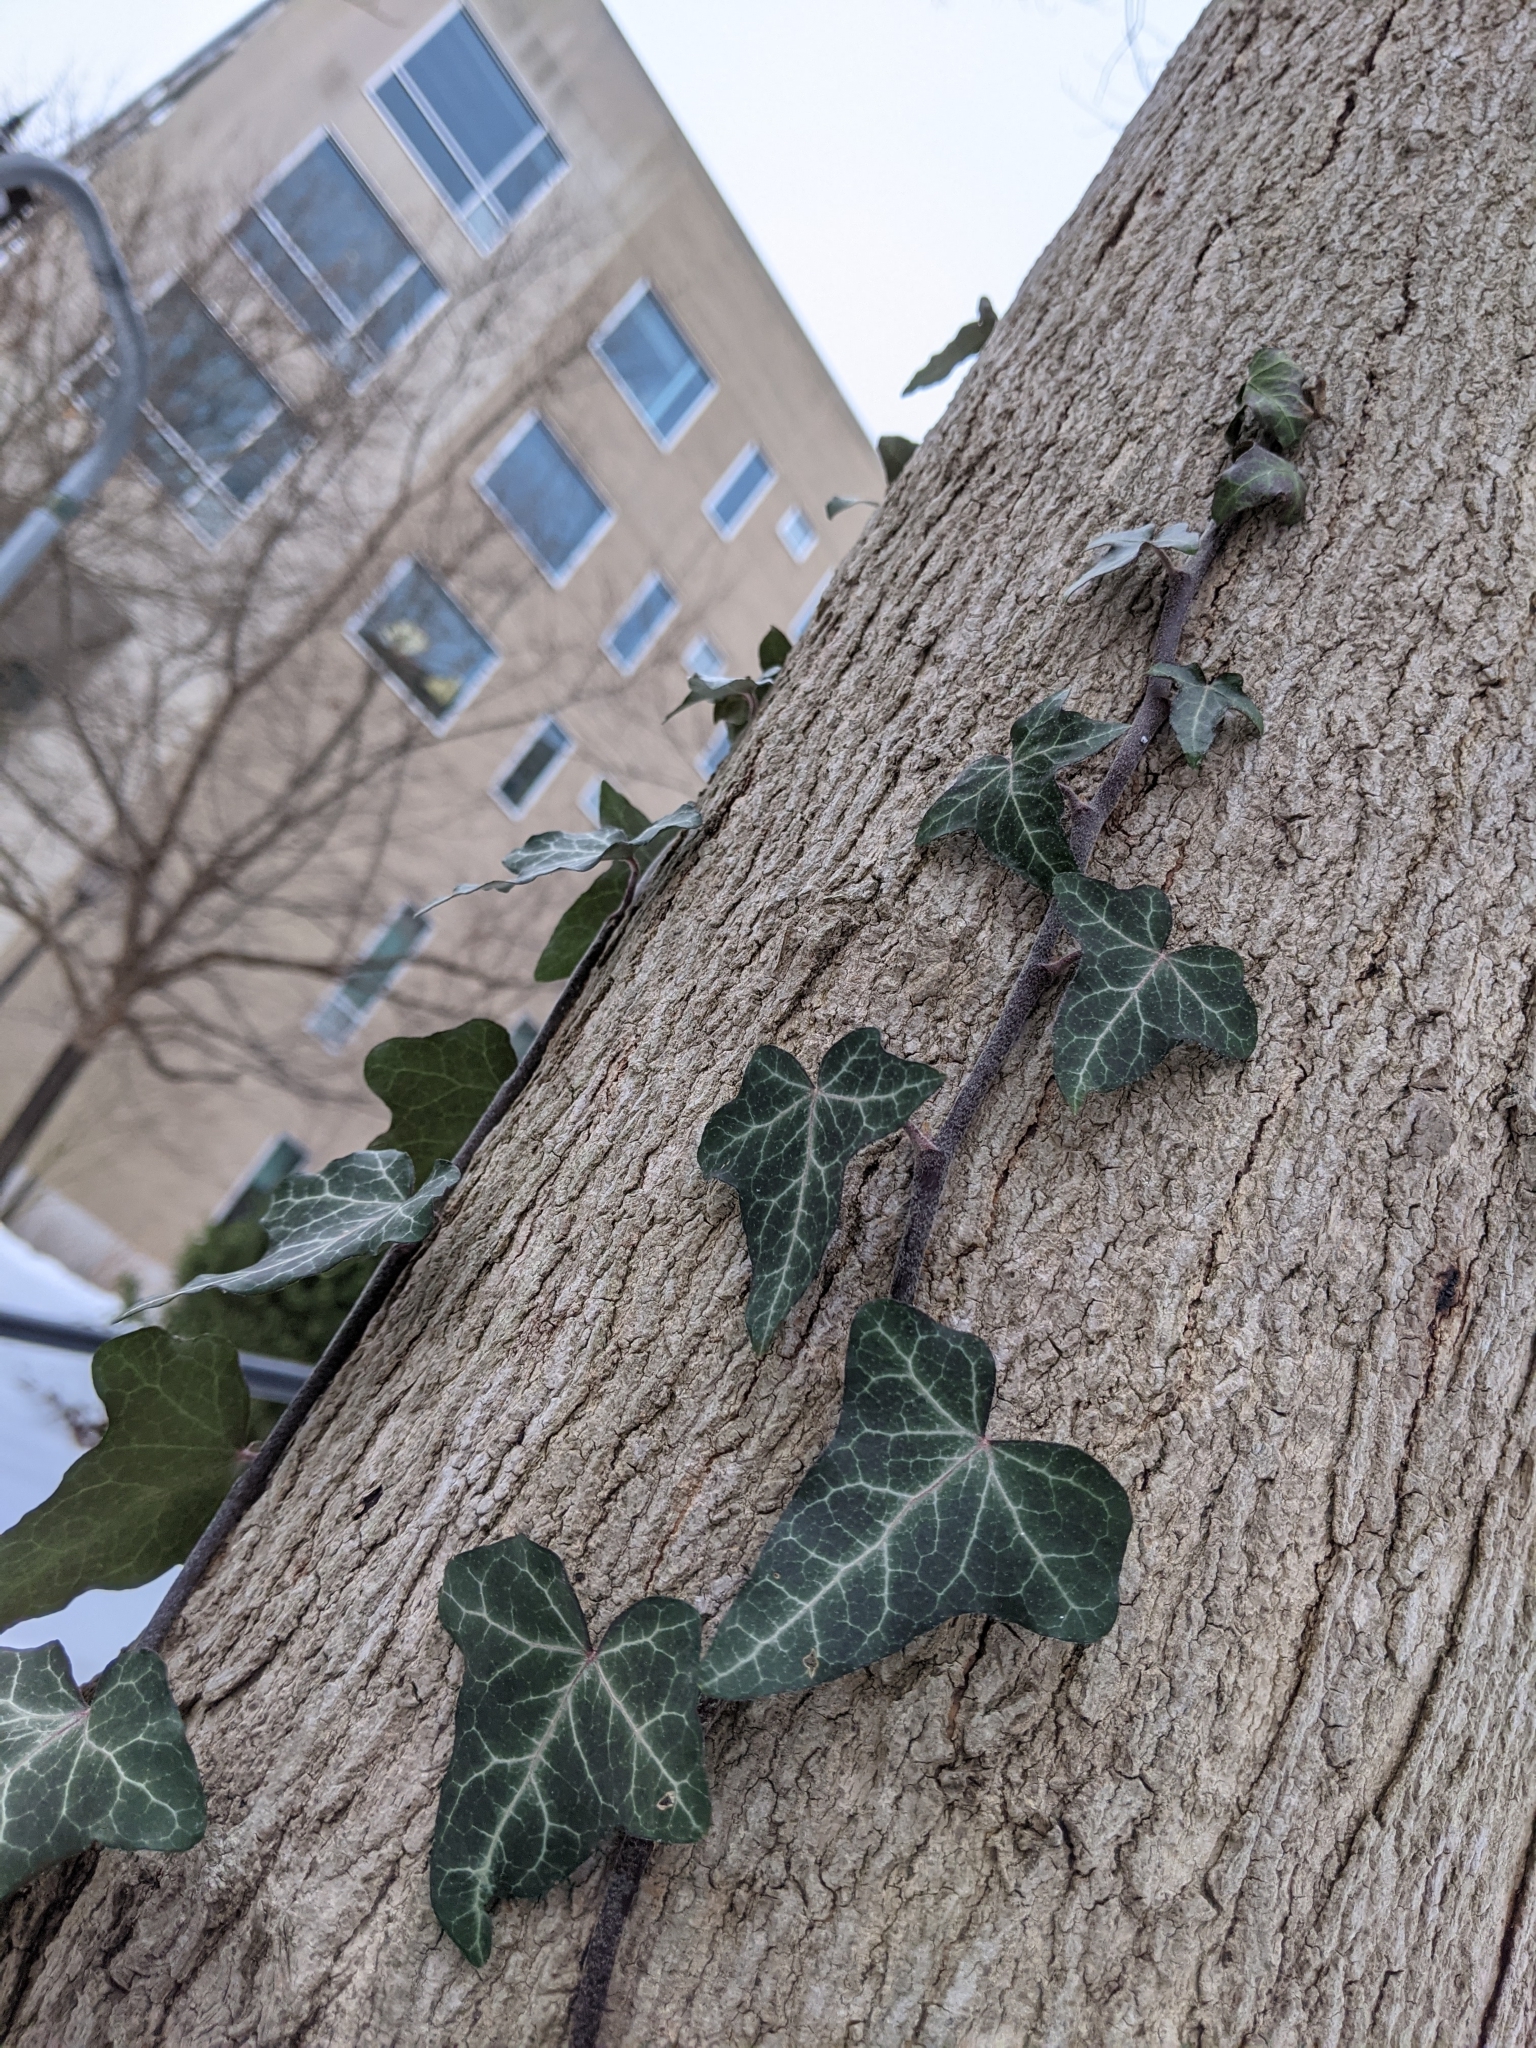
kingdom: Plantae
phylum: Tracheophyta
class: Magnoliopsida
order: Apiales
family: Araliaceae
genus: Hedera
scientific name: Hedera helix
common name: Ivy
